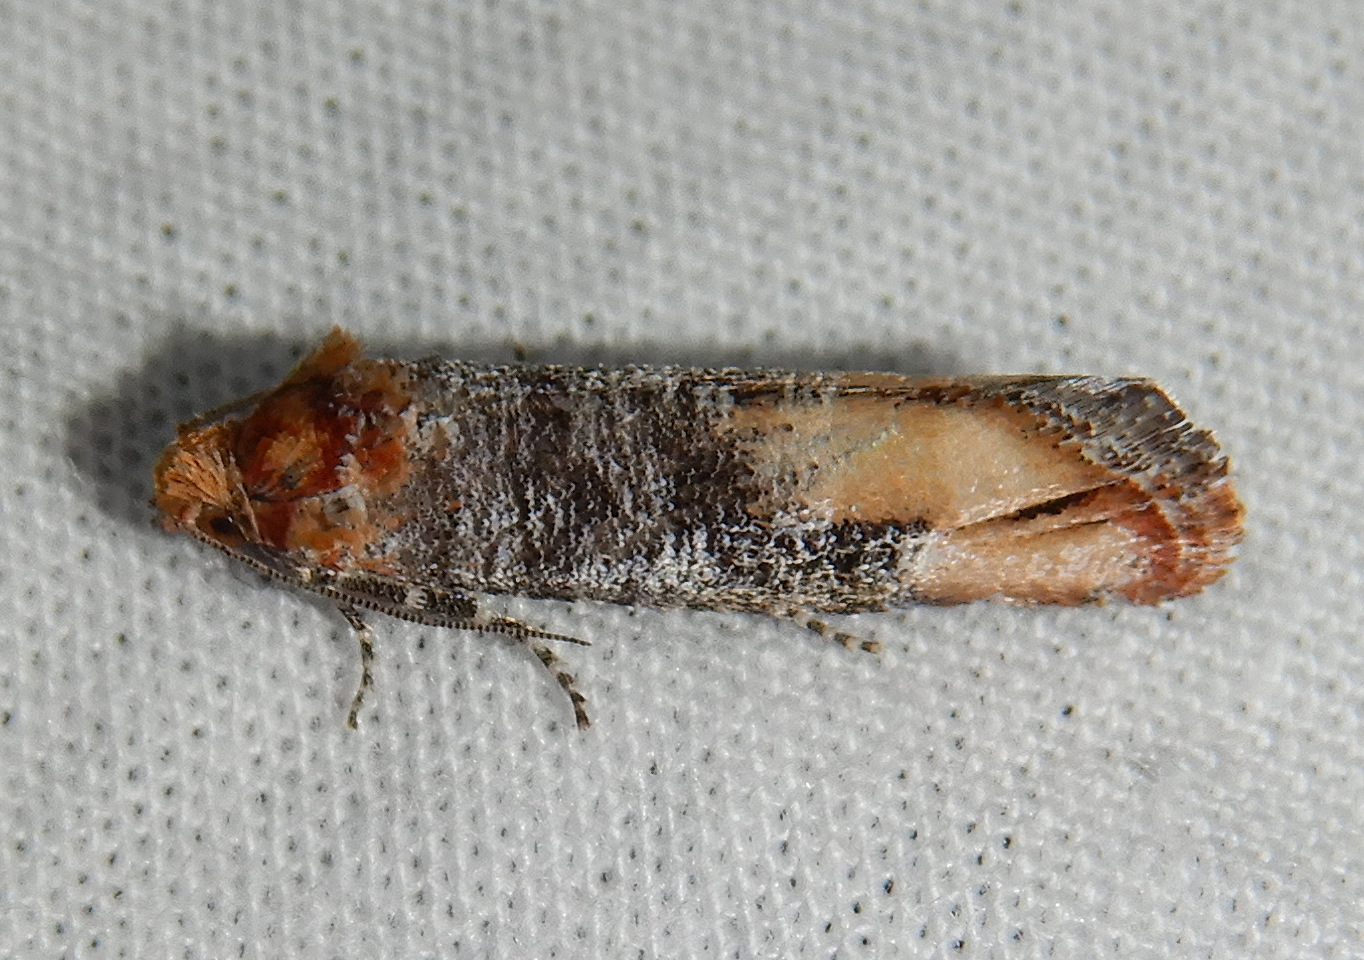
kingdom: Animalia
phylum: Arthropoda
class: Insecta
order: Lepidoptera
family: Tortricidae
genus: Rhyacionia
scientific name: Rhyacionia neomexicana
